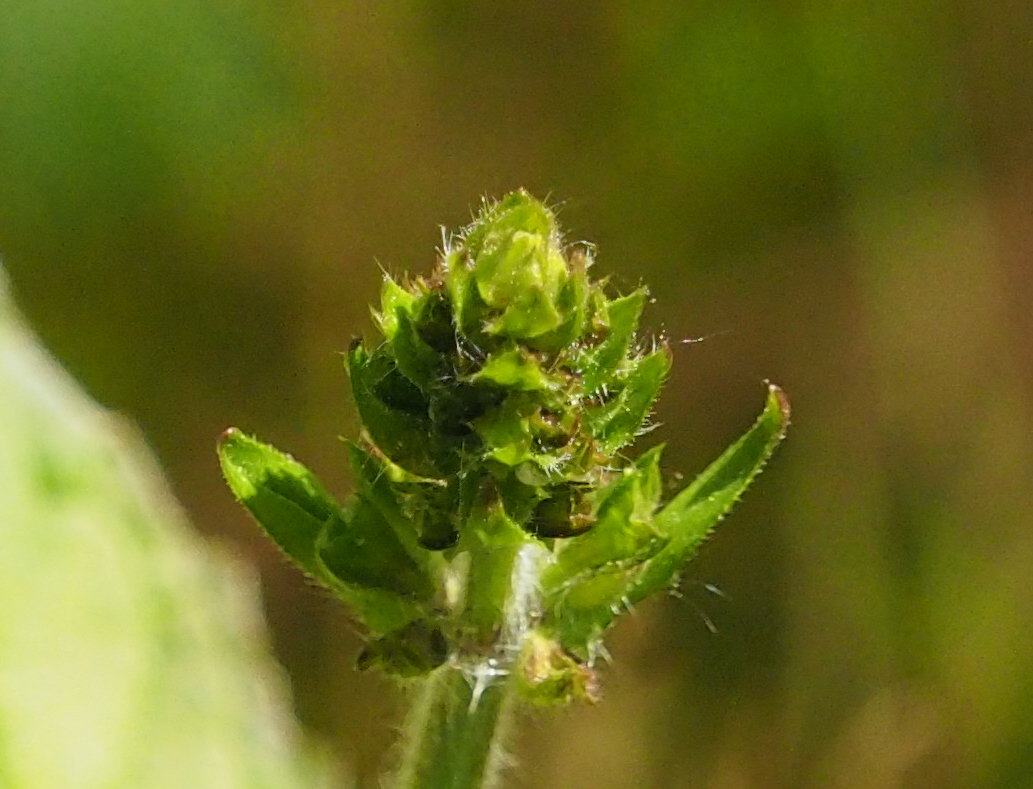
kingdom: Plantae
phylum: Tracheophyta
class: Magnoliopsida
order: Lamiales
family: Lamiaceae
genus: Salvia
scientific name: Salvia lyrata
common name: Cancerweed
